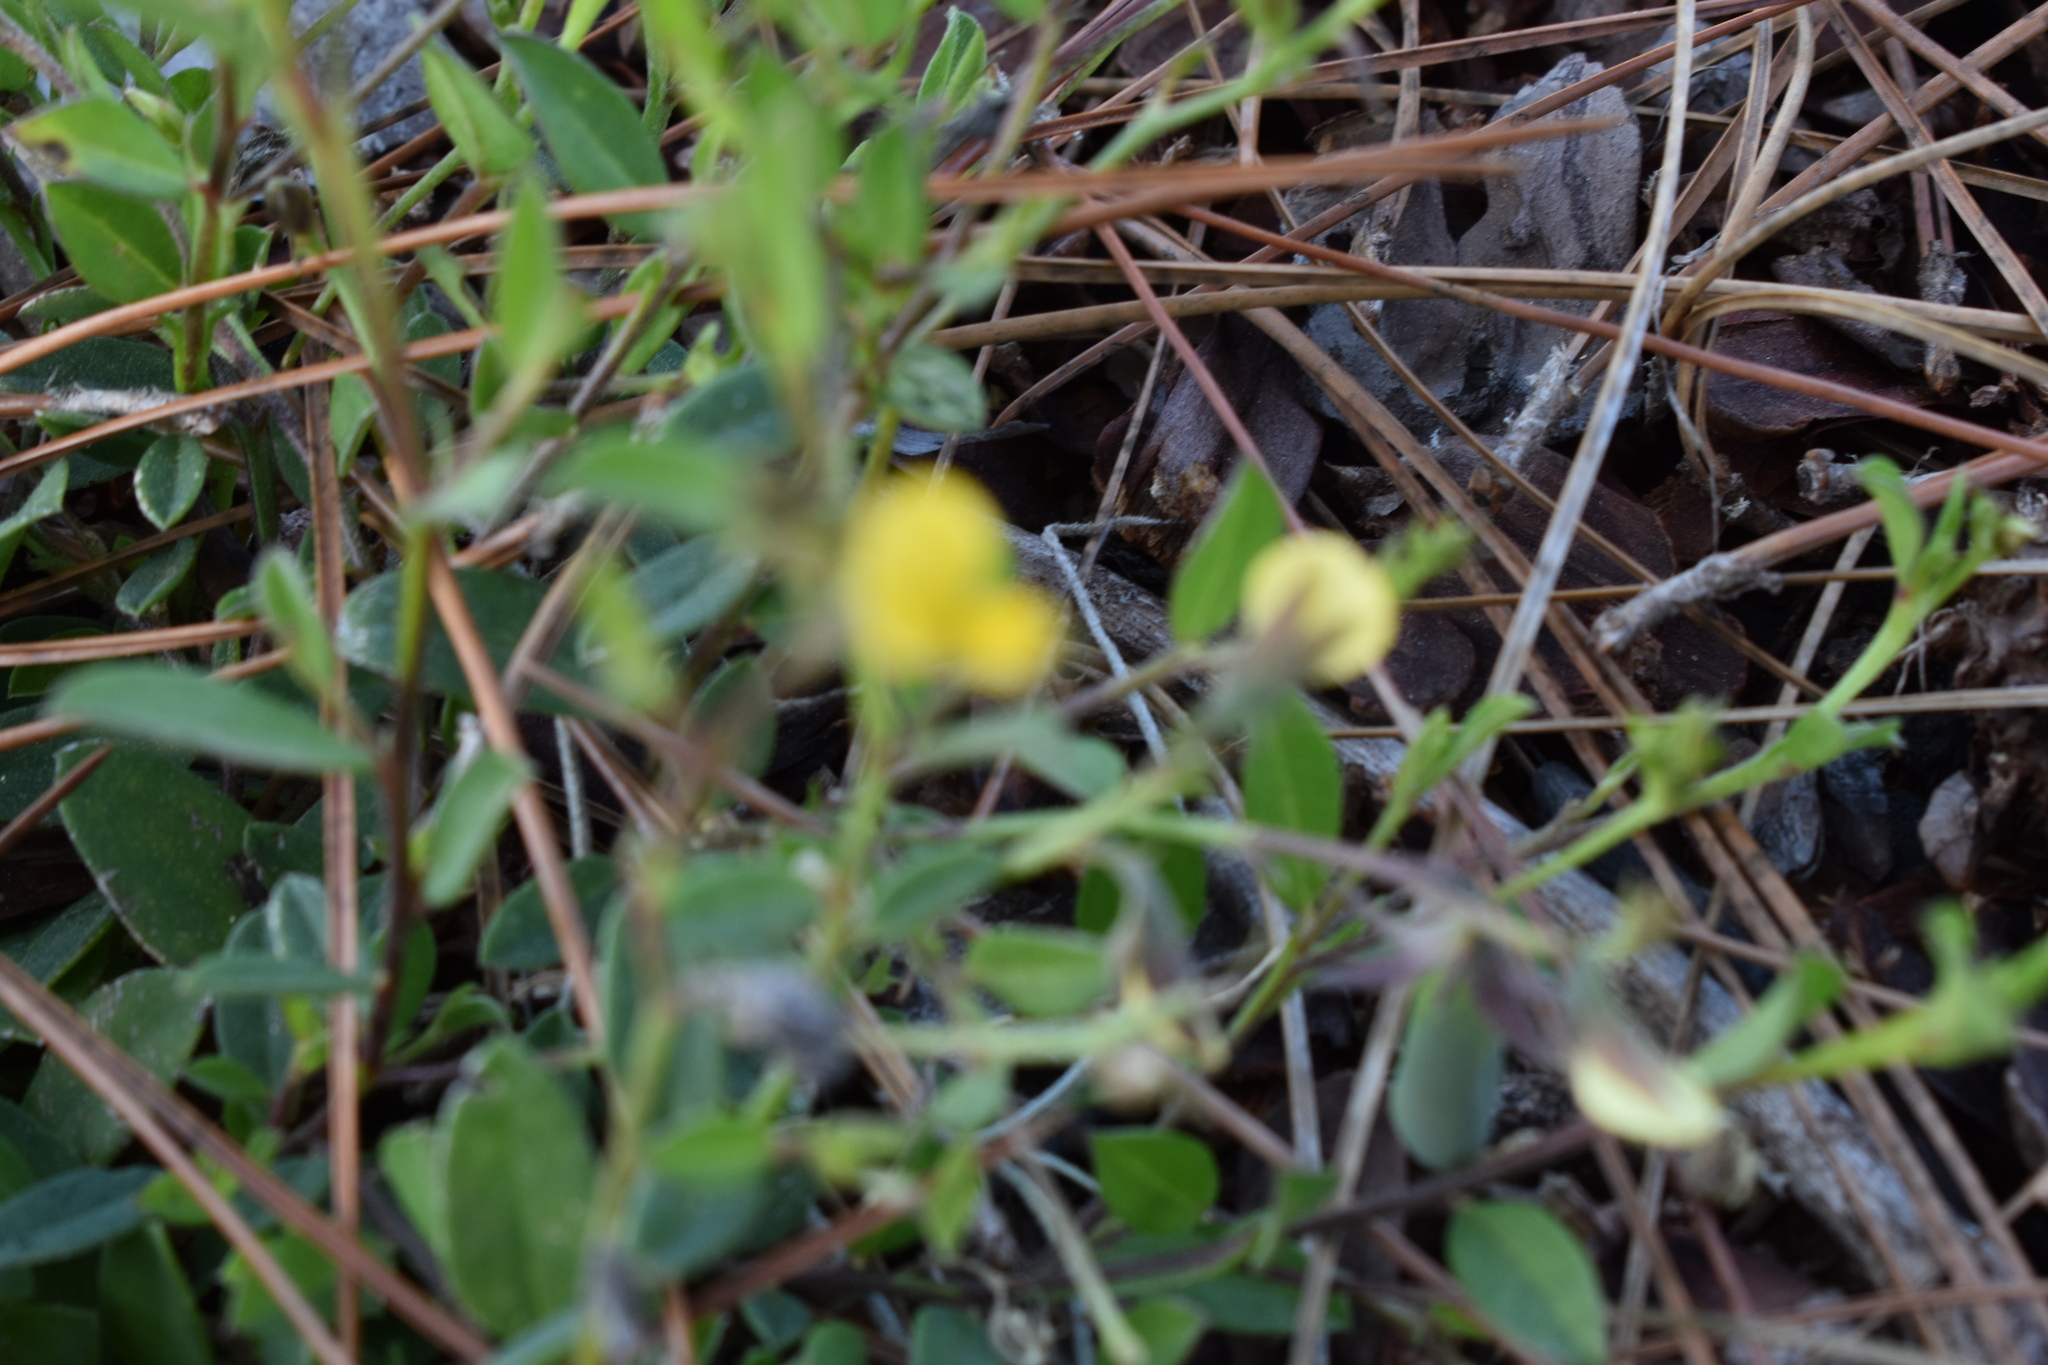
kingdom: Plantae
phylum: Tracheophyta
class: Magnoliopsida
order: Fabales
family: Fabaceae
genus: Crotalaria
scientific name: Crotalaria rotundifolia
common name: Prostrate rattlebox
